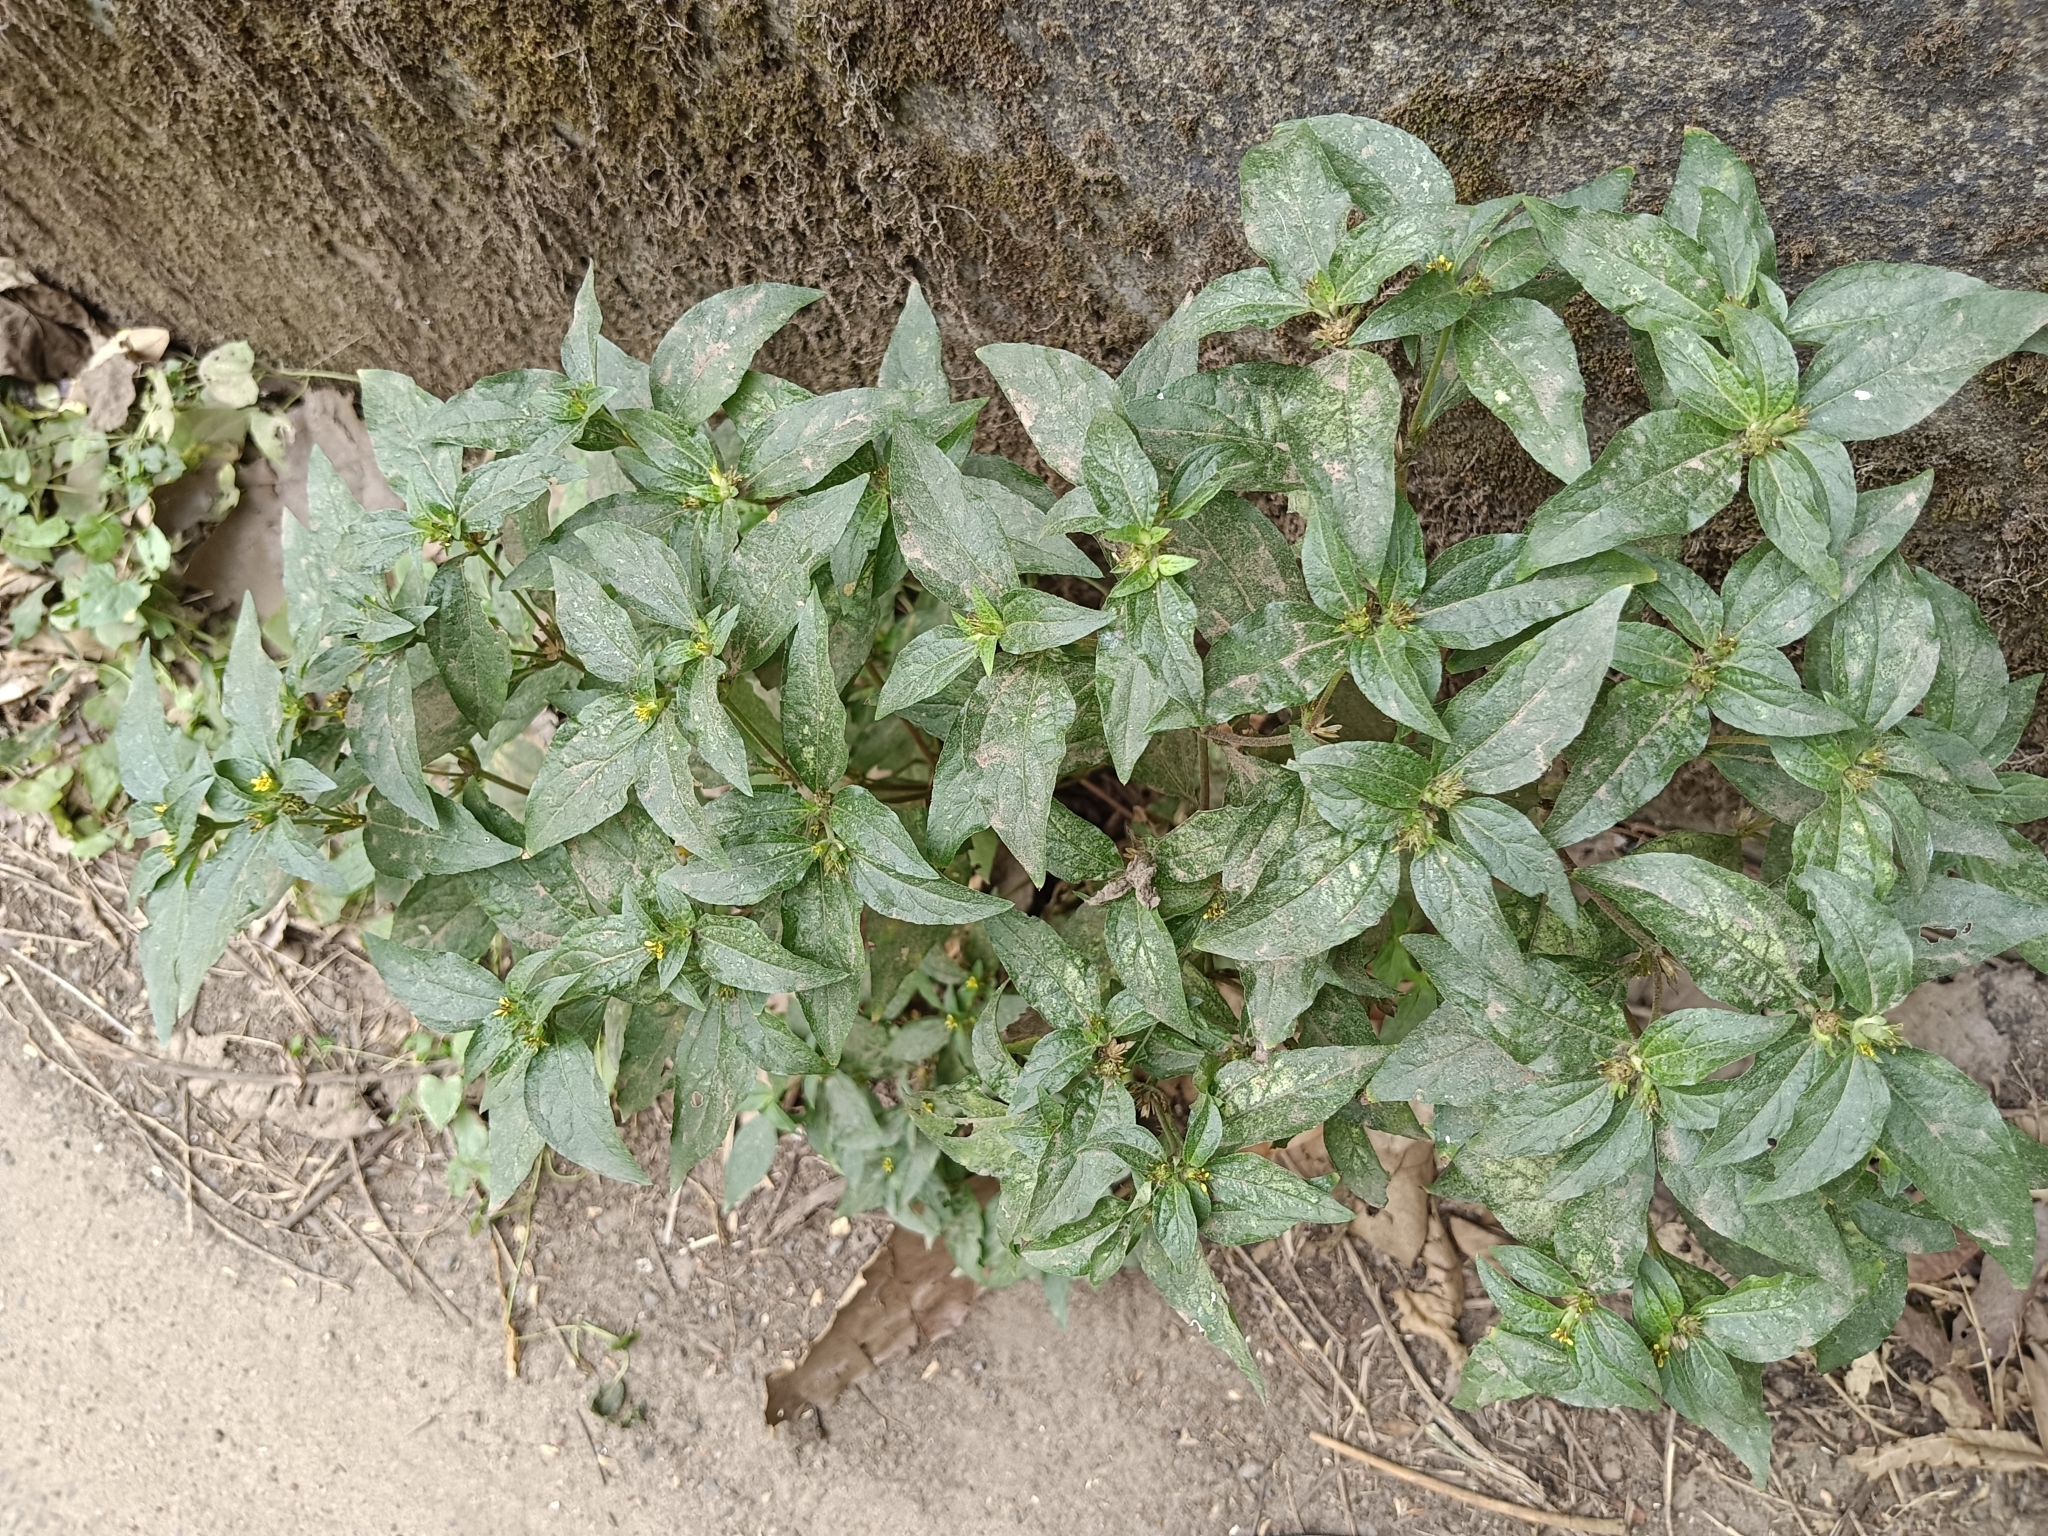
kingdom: Plantae
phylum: Tracheophyta
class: Magnoliopsida
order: Asterales
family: Asteraceae
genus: Synedrella
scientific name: Synedrella nodiflora
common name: Nodeweed
